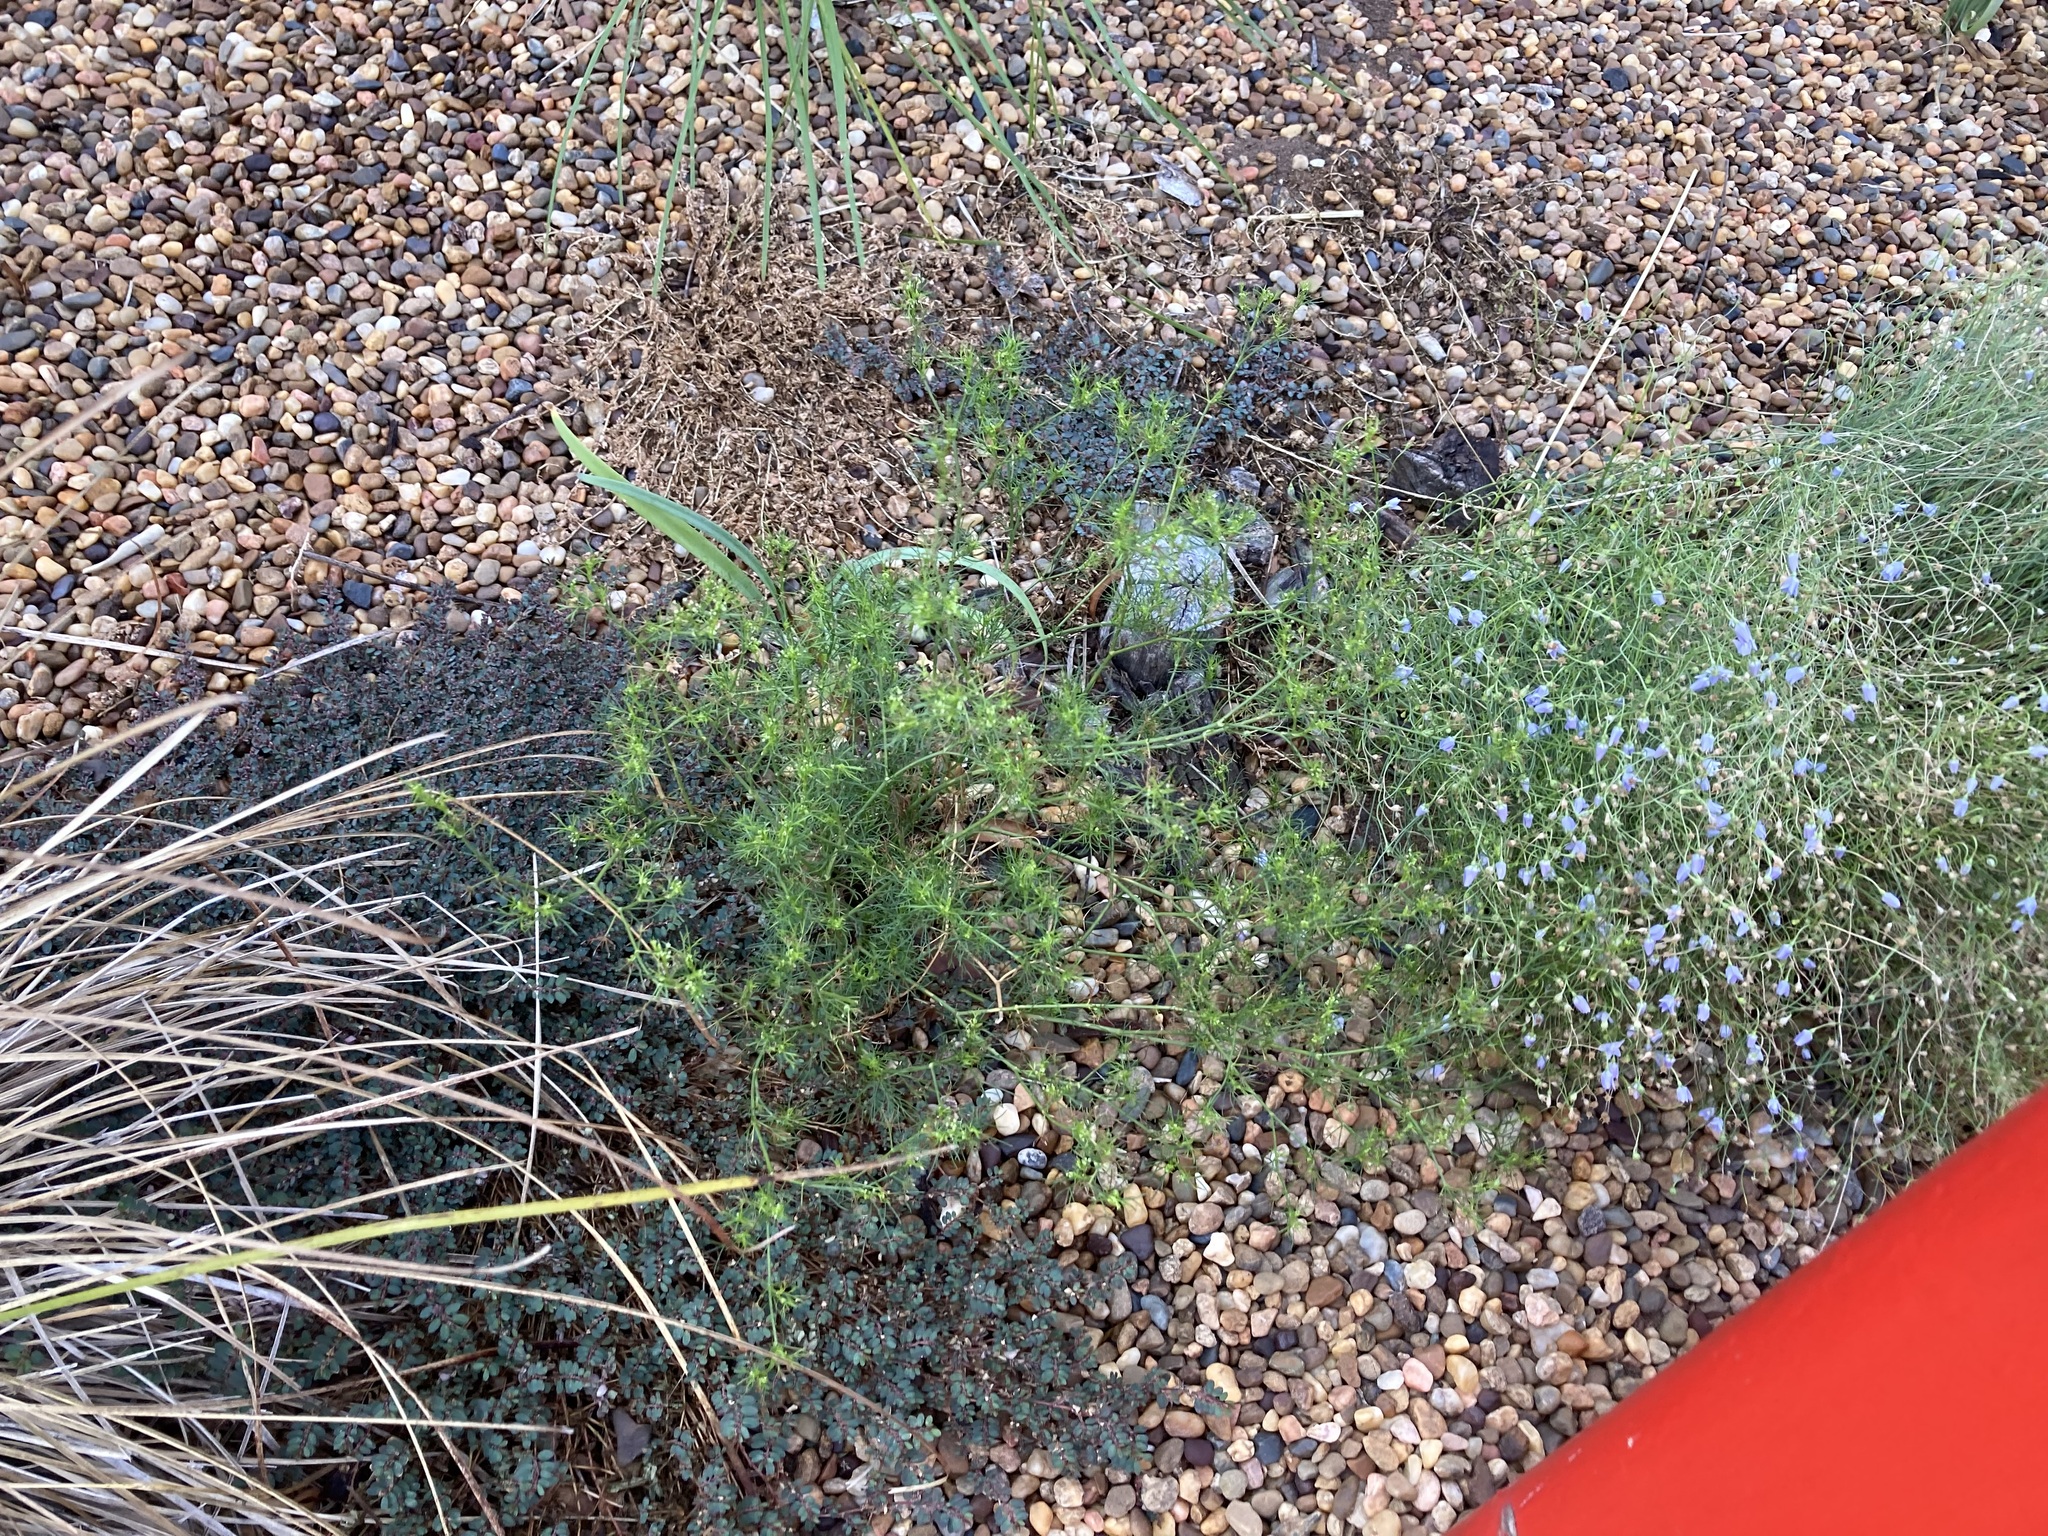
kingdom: Plantae
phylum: Tracheophyta
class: Magnoliopsida
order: Apiales
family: Apiaceae
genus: Cyclospermum
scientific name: Cyclospermum leptophyllum
